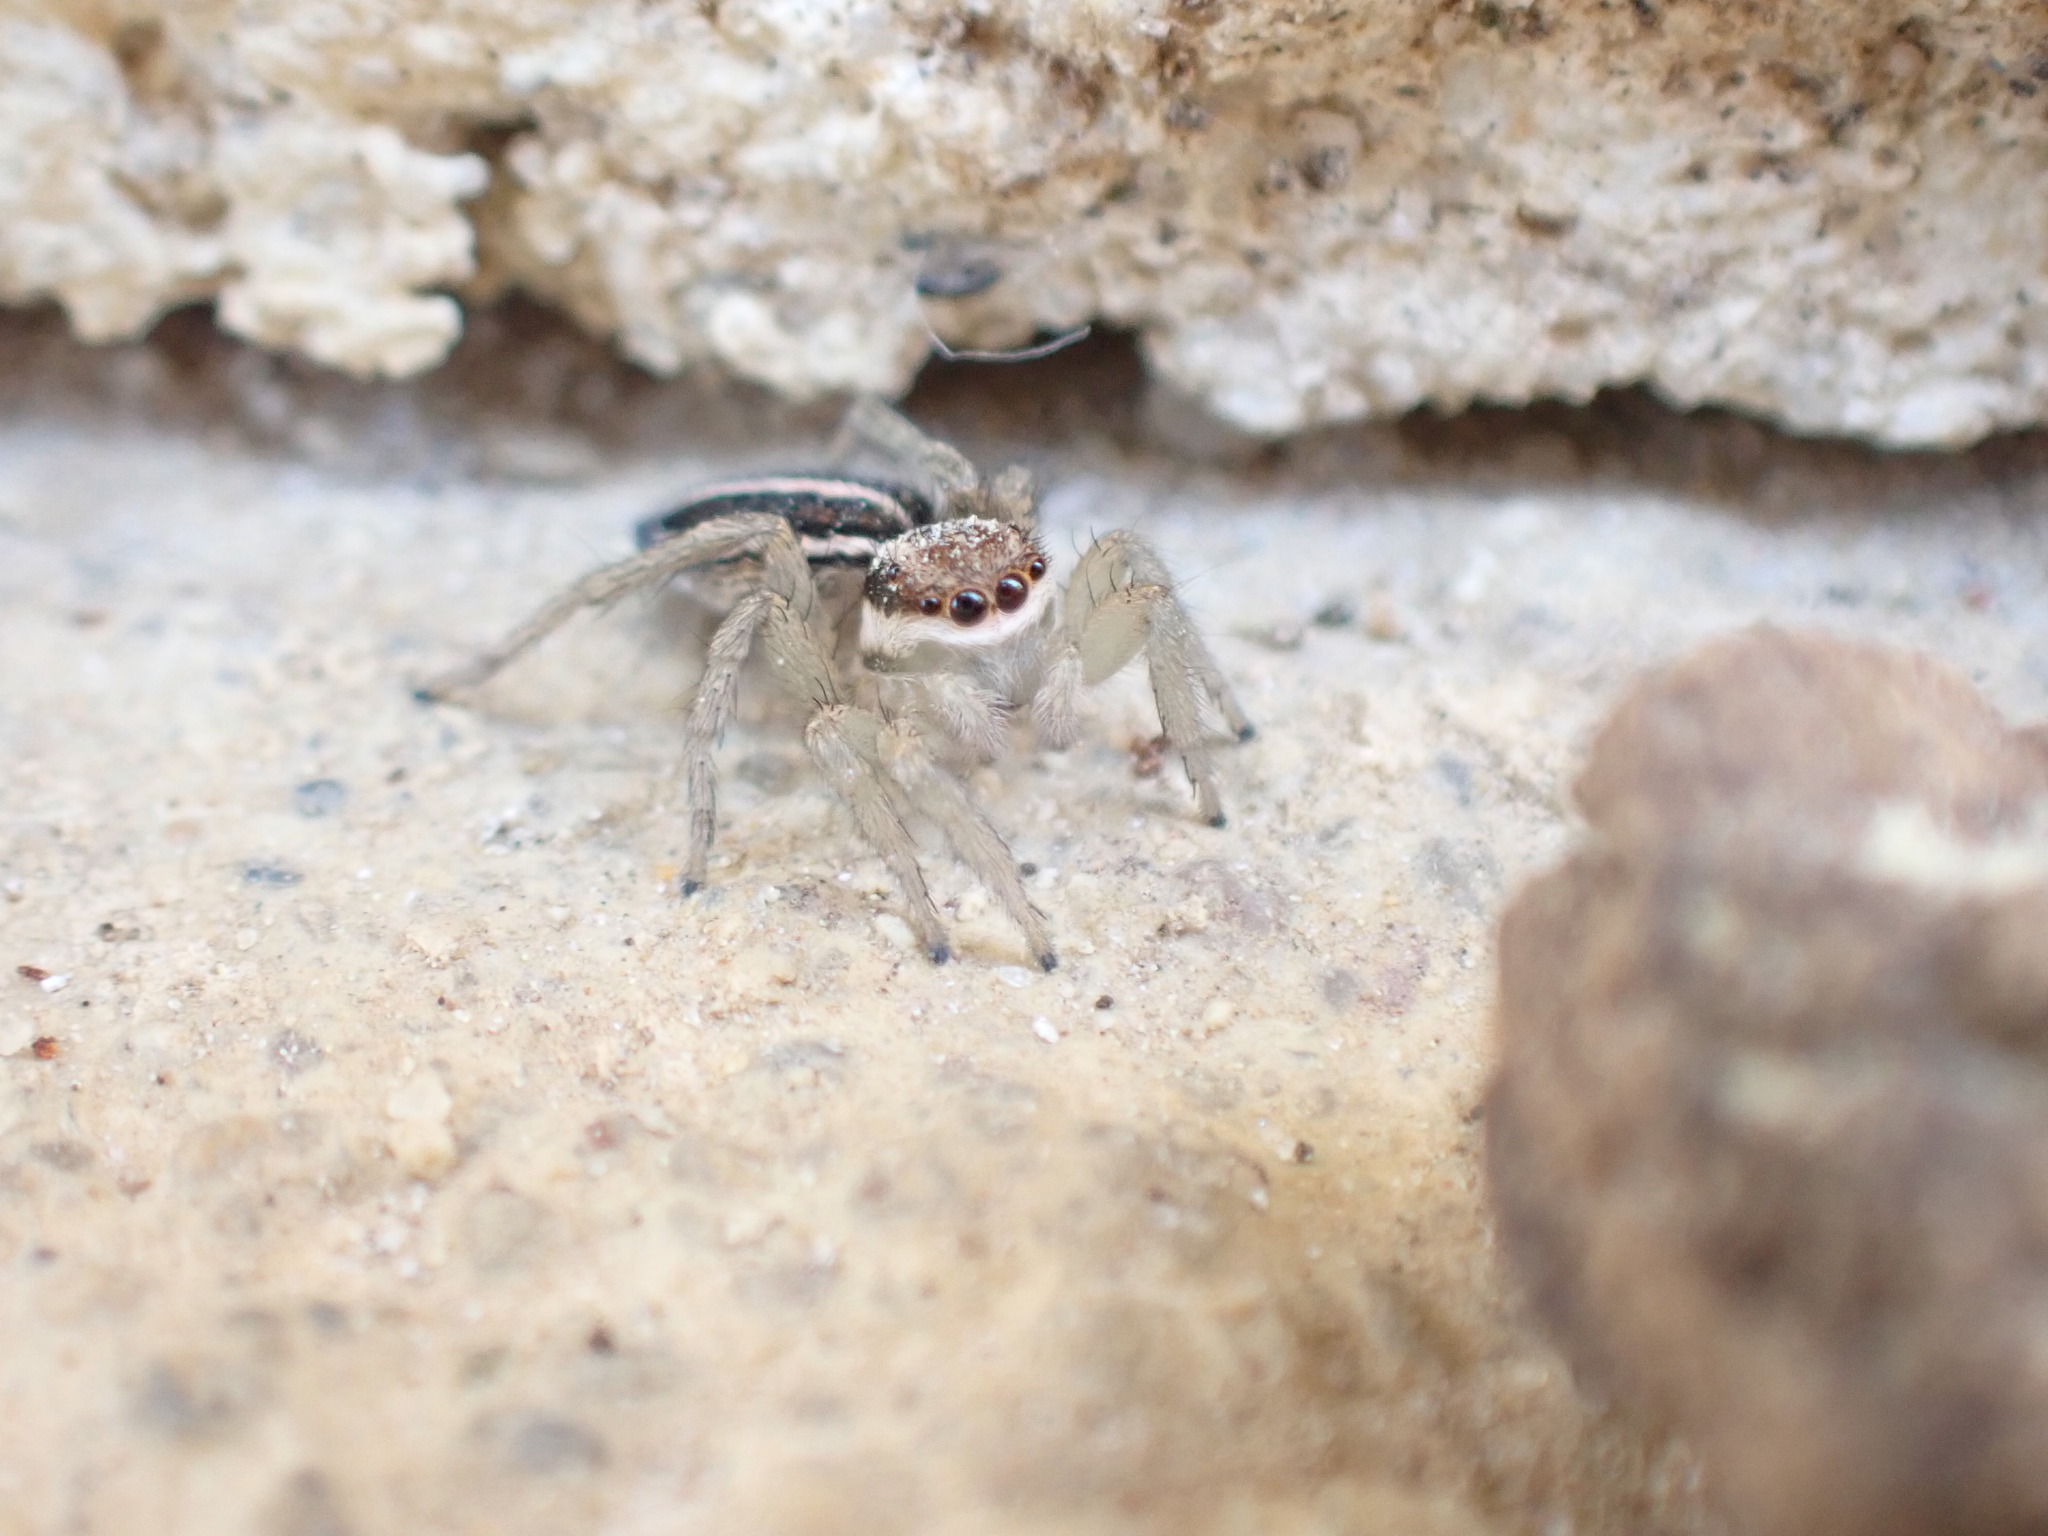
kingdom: Animalia
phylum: Arthropoda
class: Arachnida
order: Araneae
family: Salticidae
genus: Phlegra
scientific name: Phlegra bresnieri
